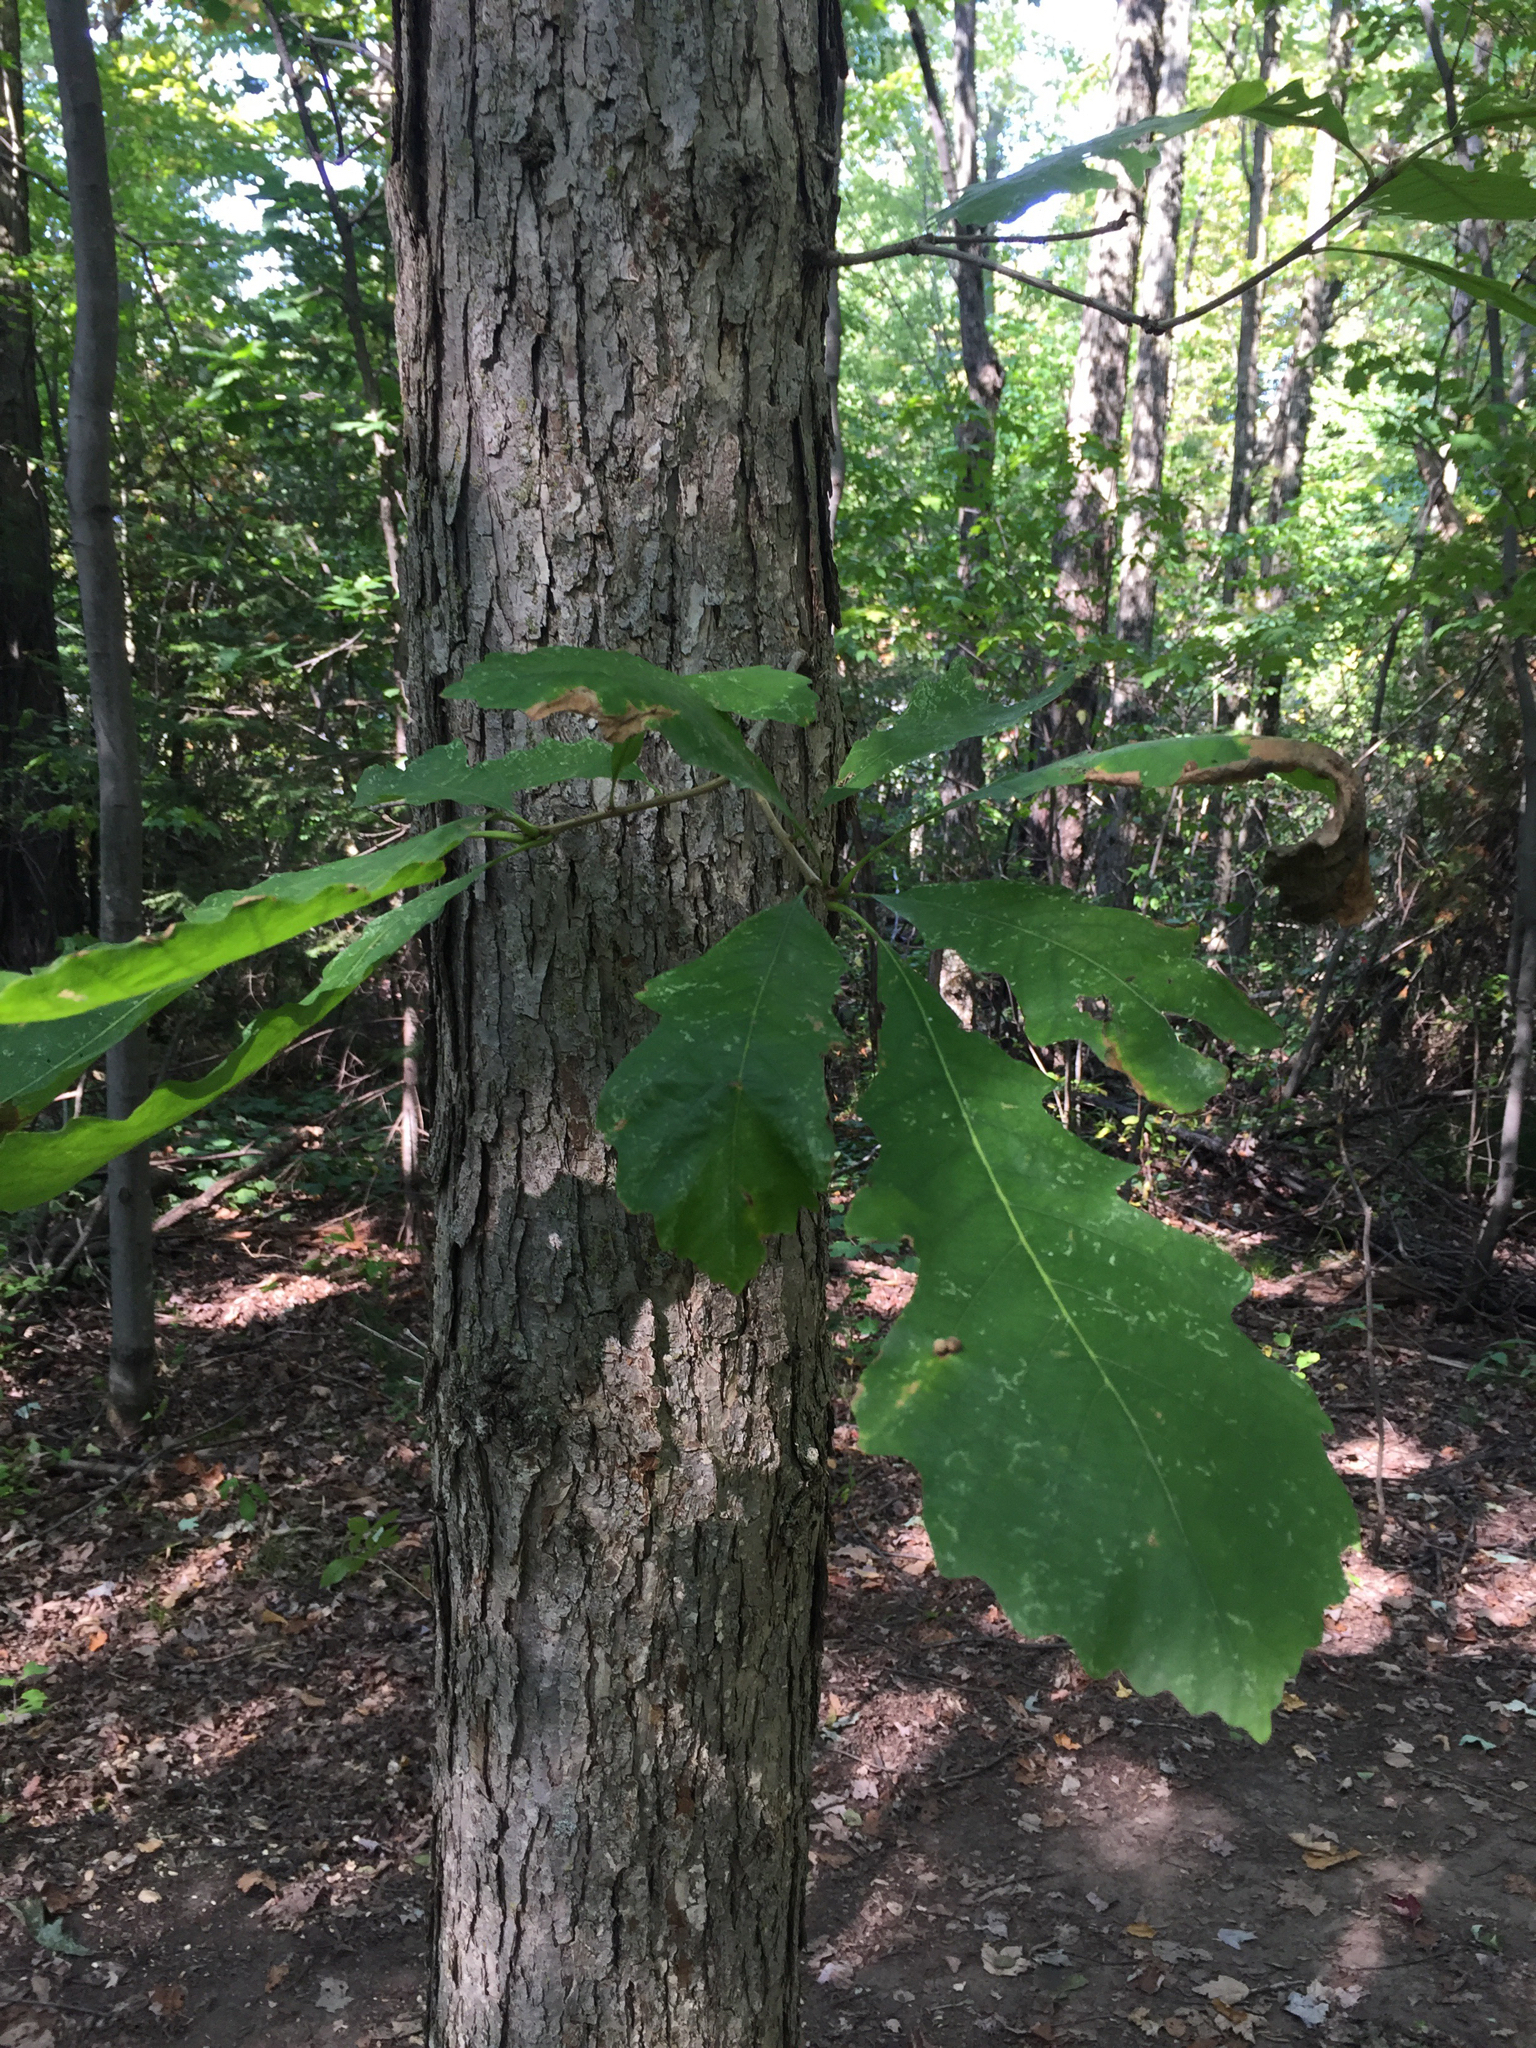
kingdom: Plantae
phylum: Tracheophyta
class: Magnoliopsida
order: Fagales
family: Fagaceae
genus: Quercus
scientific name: Quercus macrocarpa
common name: Bur oak
